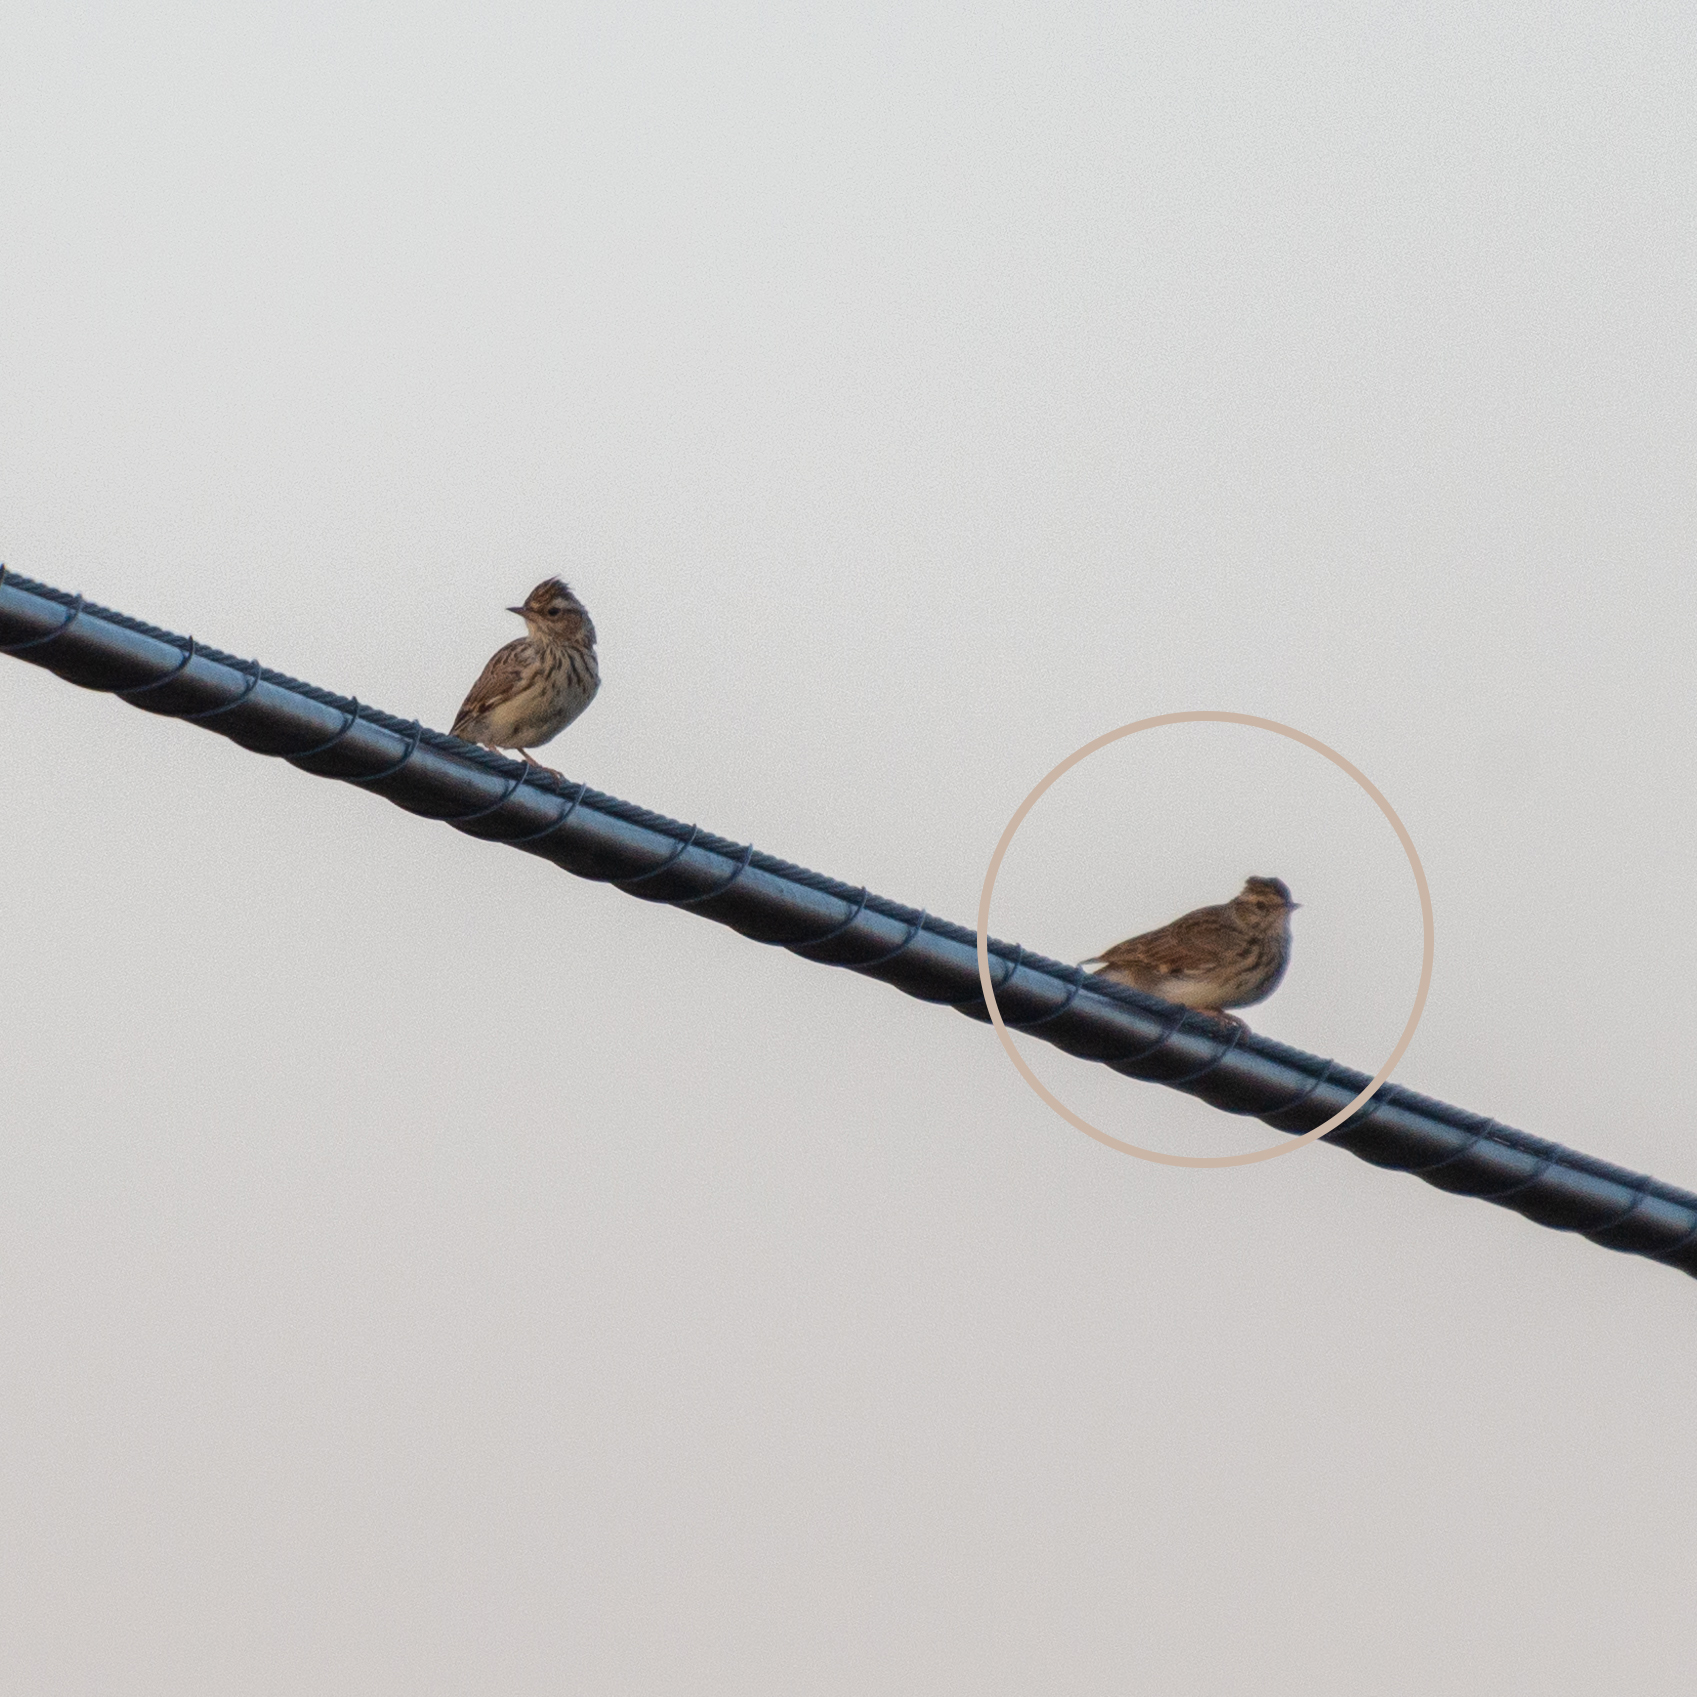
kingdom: Animalia
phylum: Chordata
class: Aves
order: Passeriformes
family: Alaudidae
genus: Lullula
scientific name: Lullula arborea
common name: Woodlark
